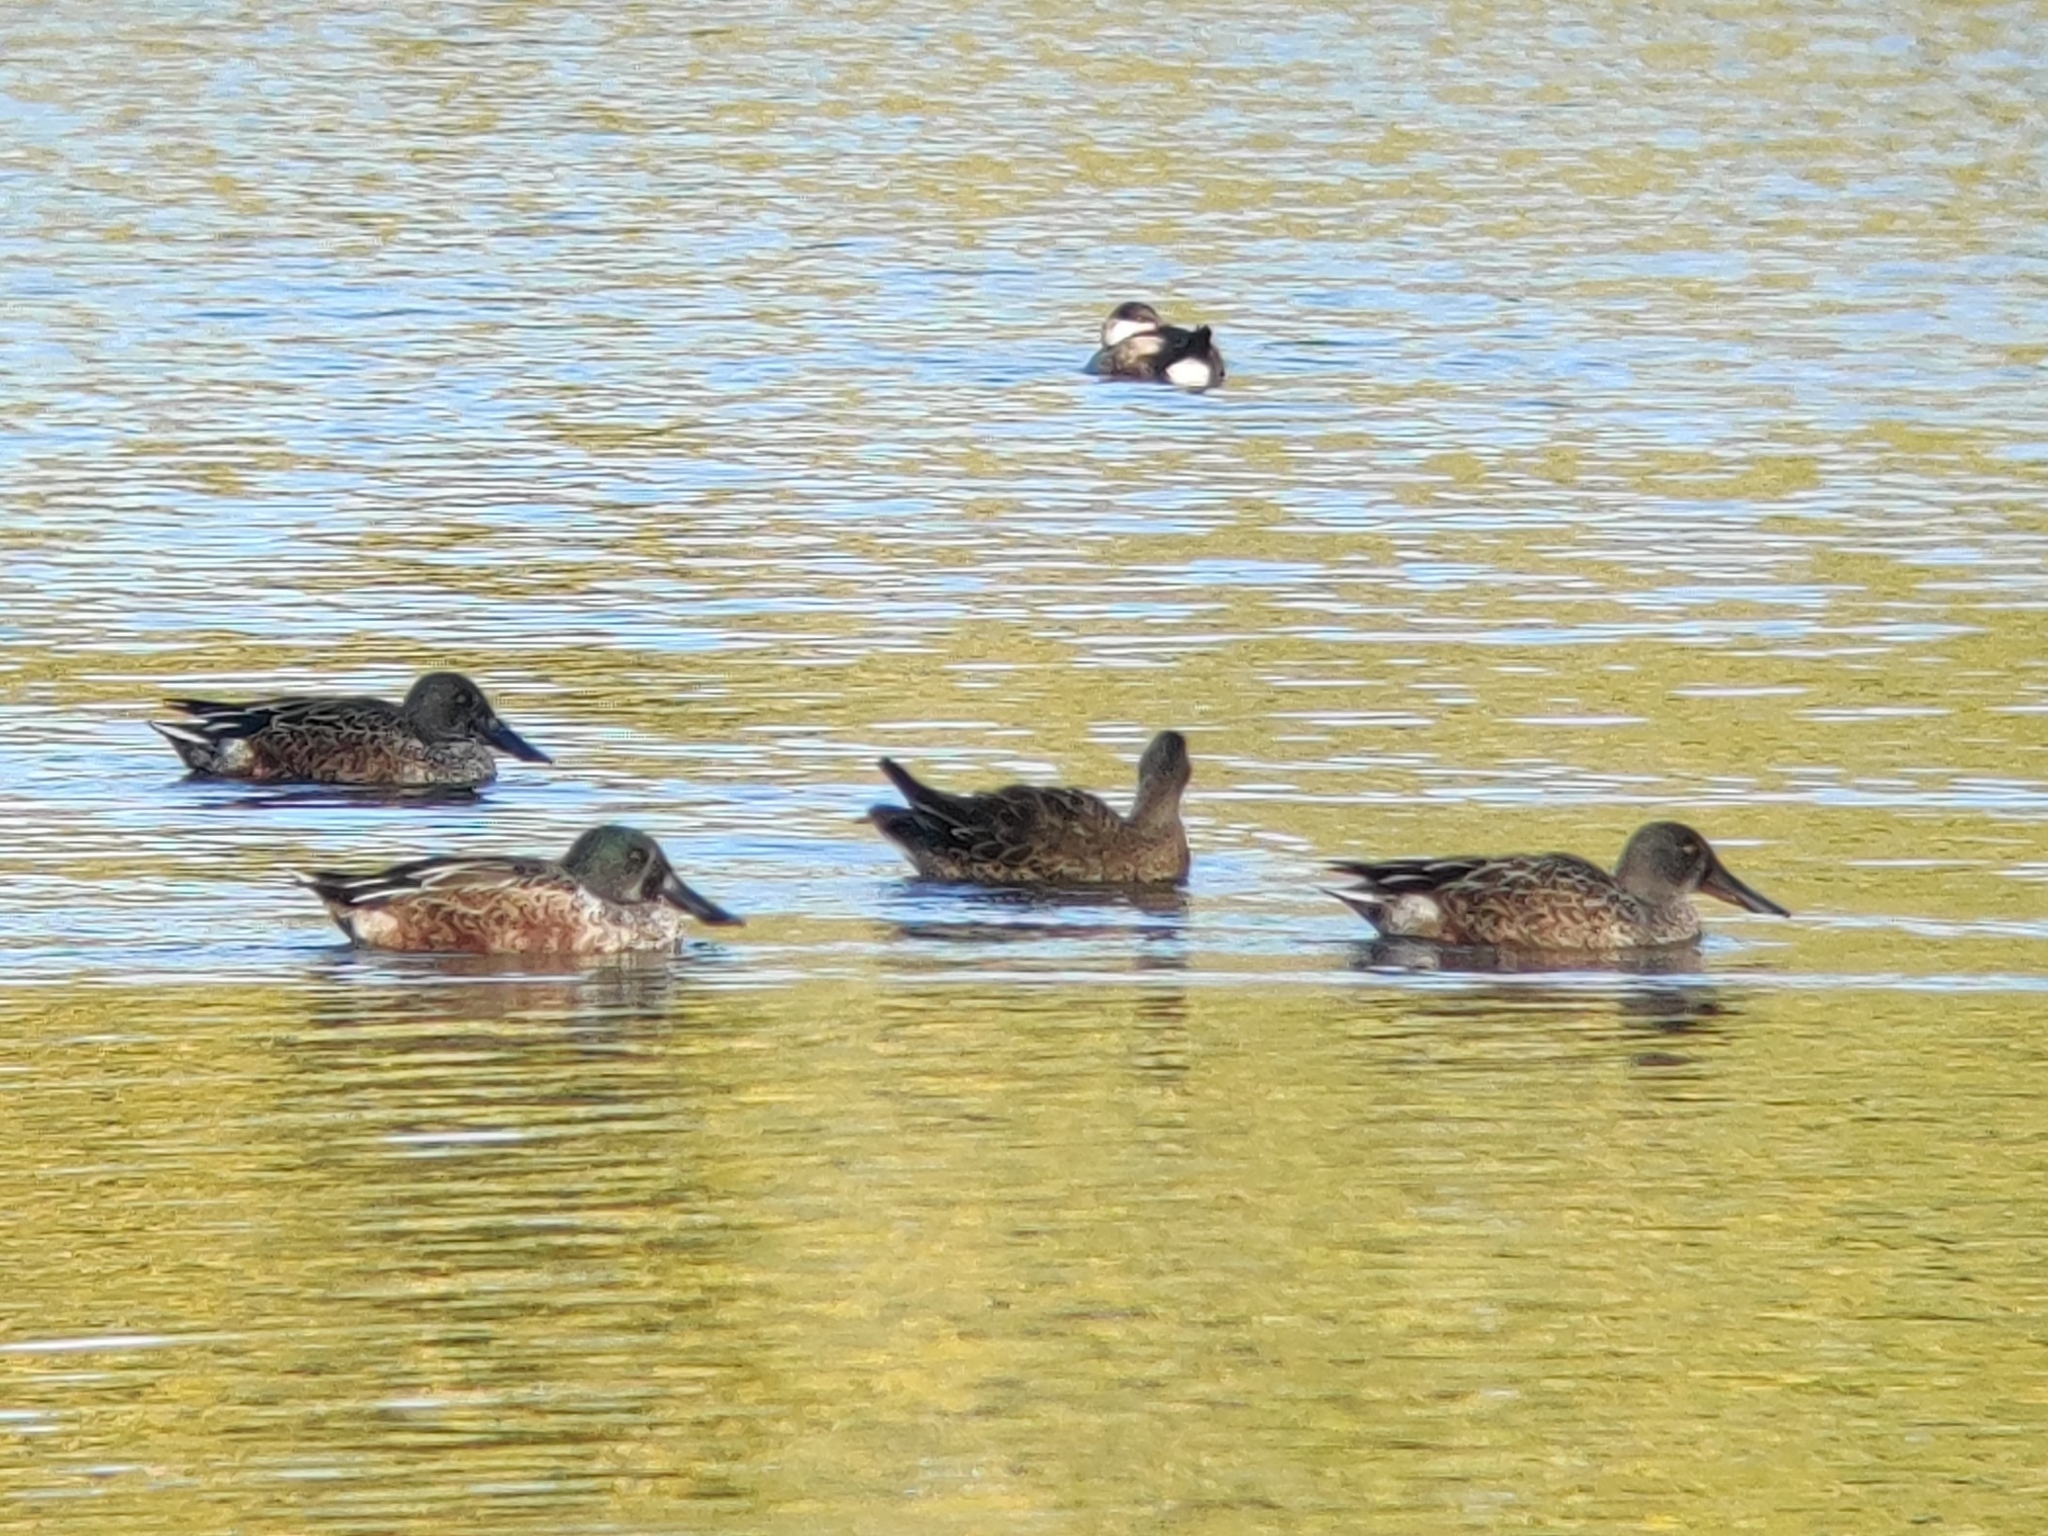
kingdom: Animalia
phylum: Chordata
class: Aves
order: Anseriformes
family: Anatidae
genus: Spatula
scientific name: Spatula clypeata
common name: Northern shoveler
